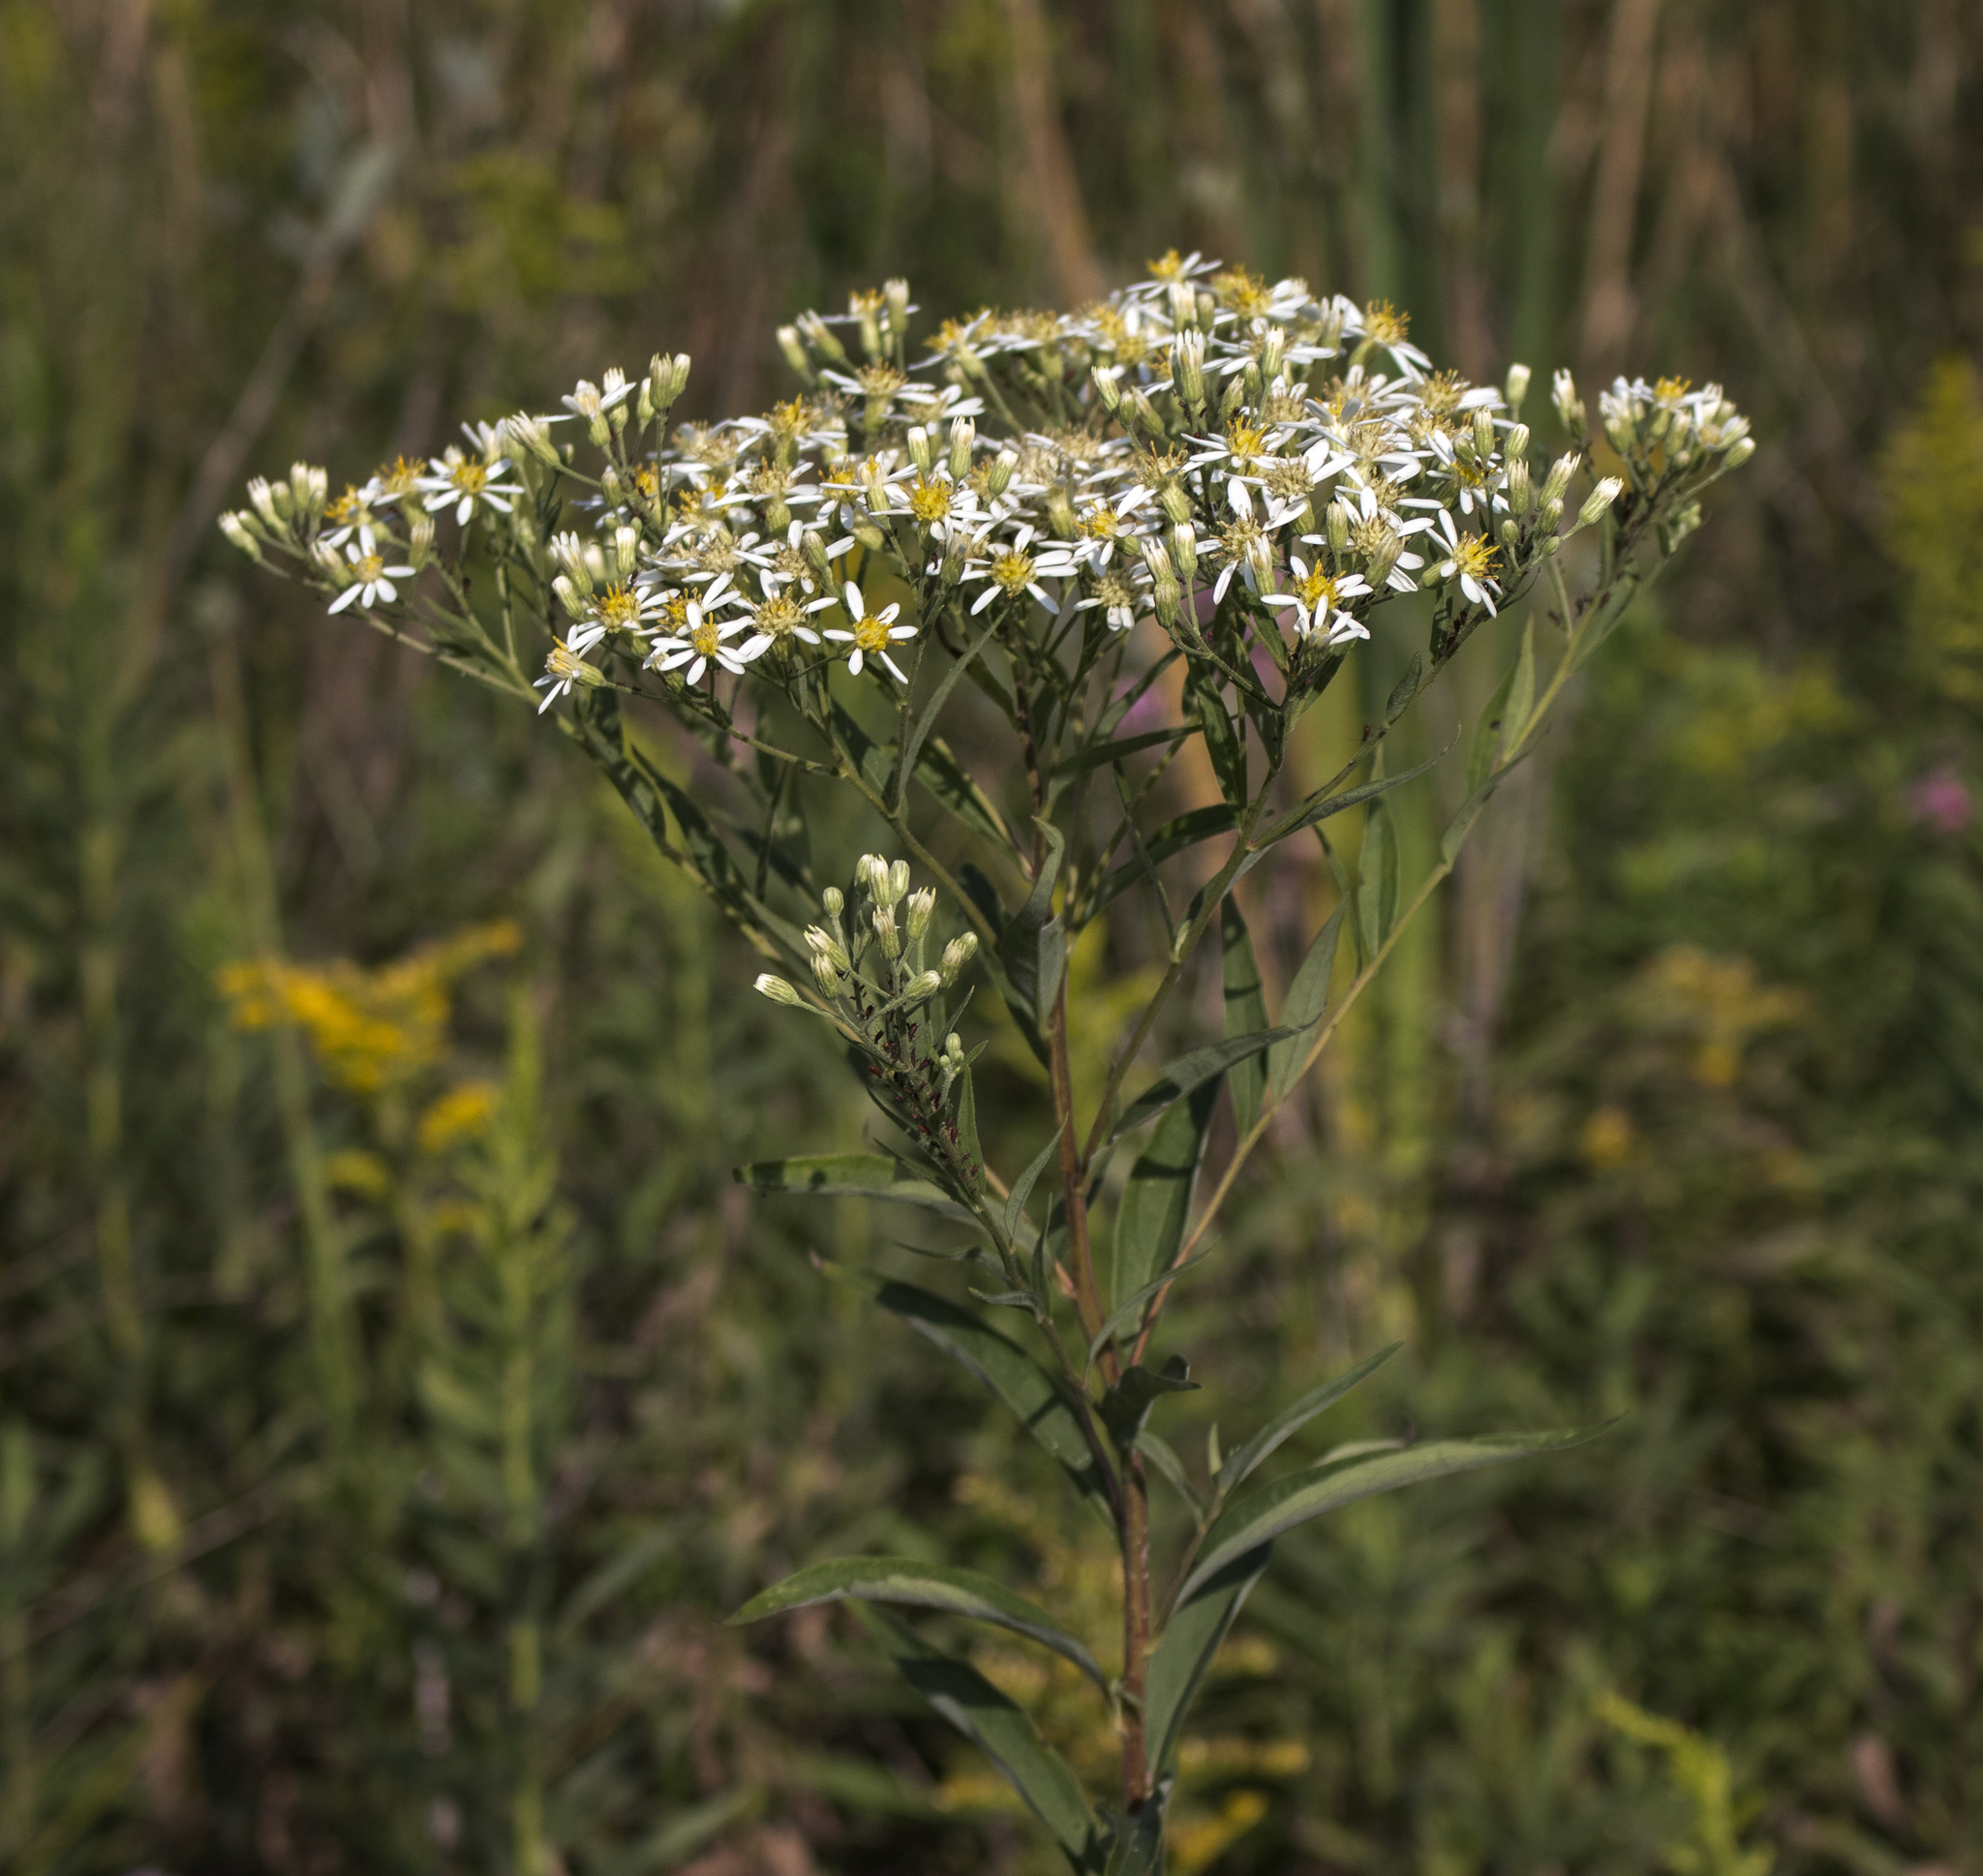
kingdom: Plantae
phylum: Tracheophyta
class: Magnoliopsida
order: Asterales
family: Asteraceae
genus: Doellingeria
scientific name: Doellingeria umbellata
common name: Flat-top white aster
